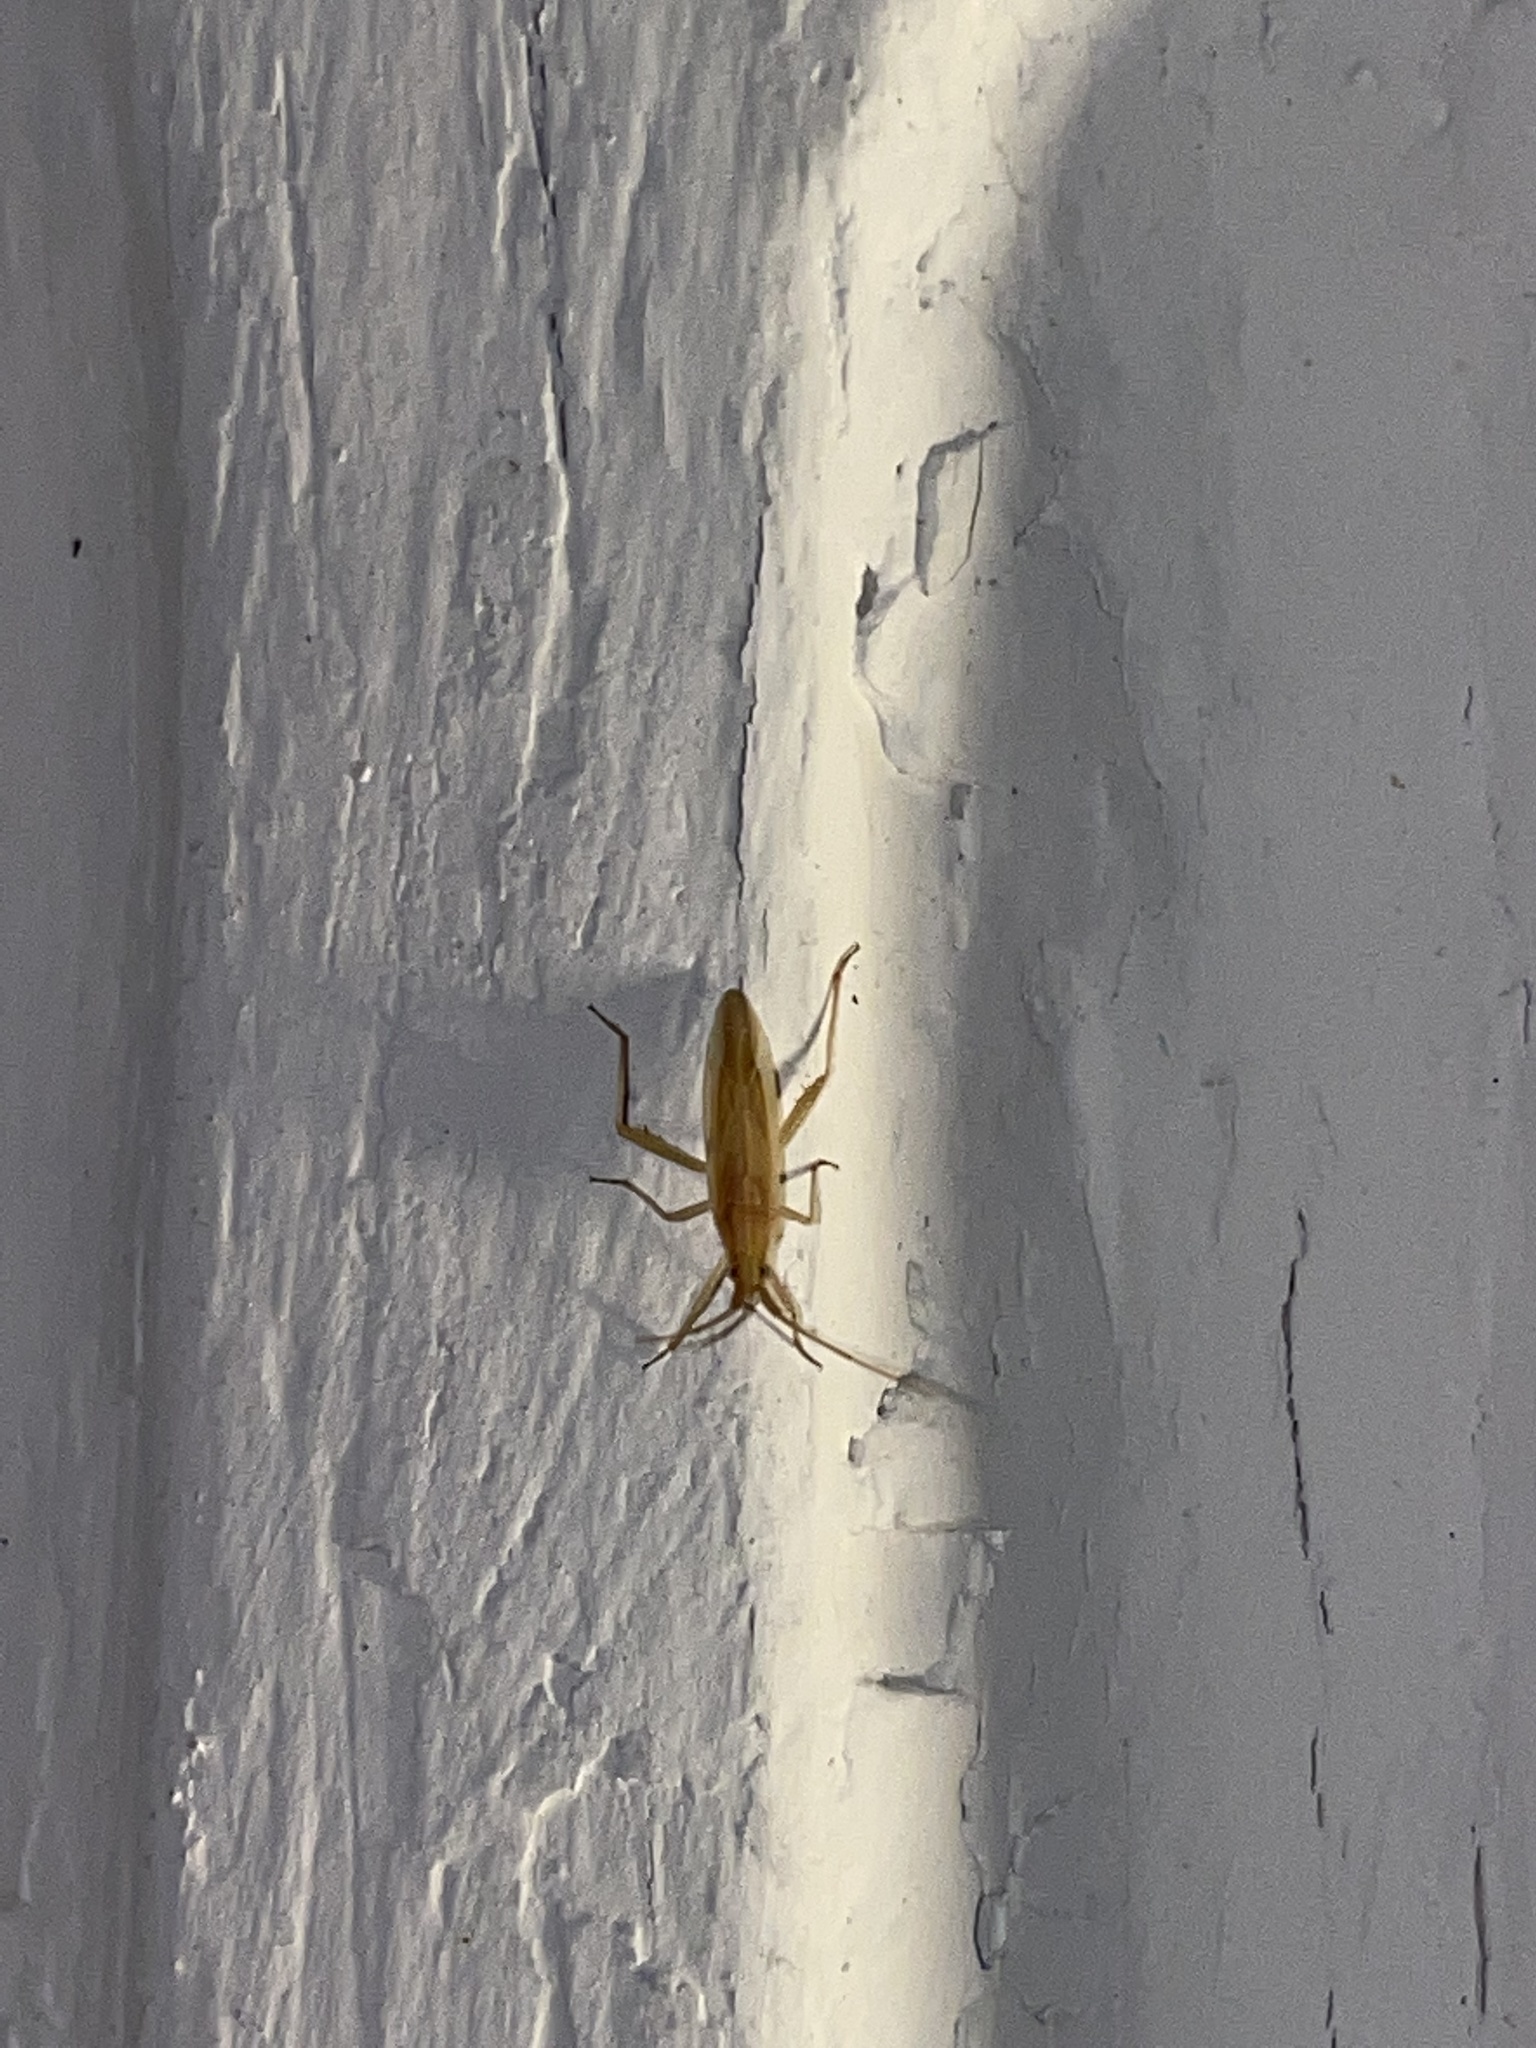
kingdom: Animalia
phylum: Arthropoda
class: Insecta
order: Hemiptera
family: Miridae
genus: Stenodema
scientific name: Stenodema trispinosa
